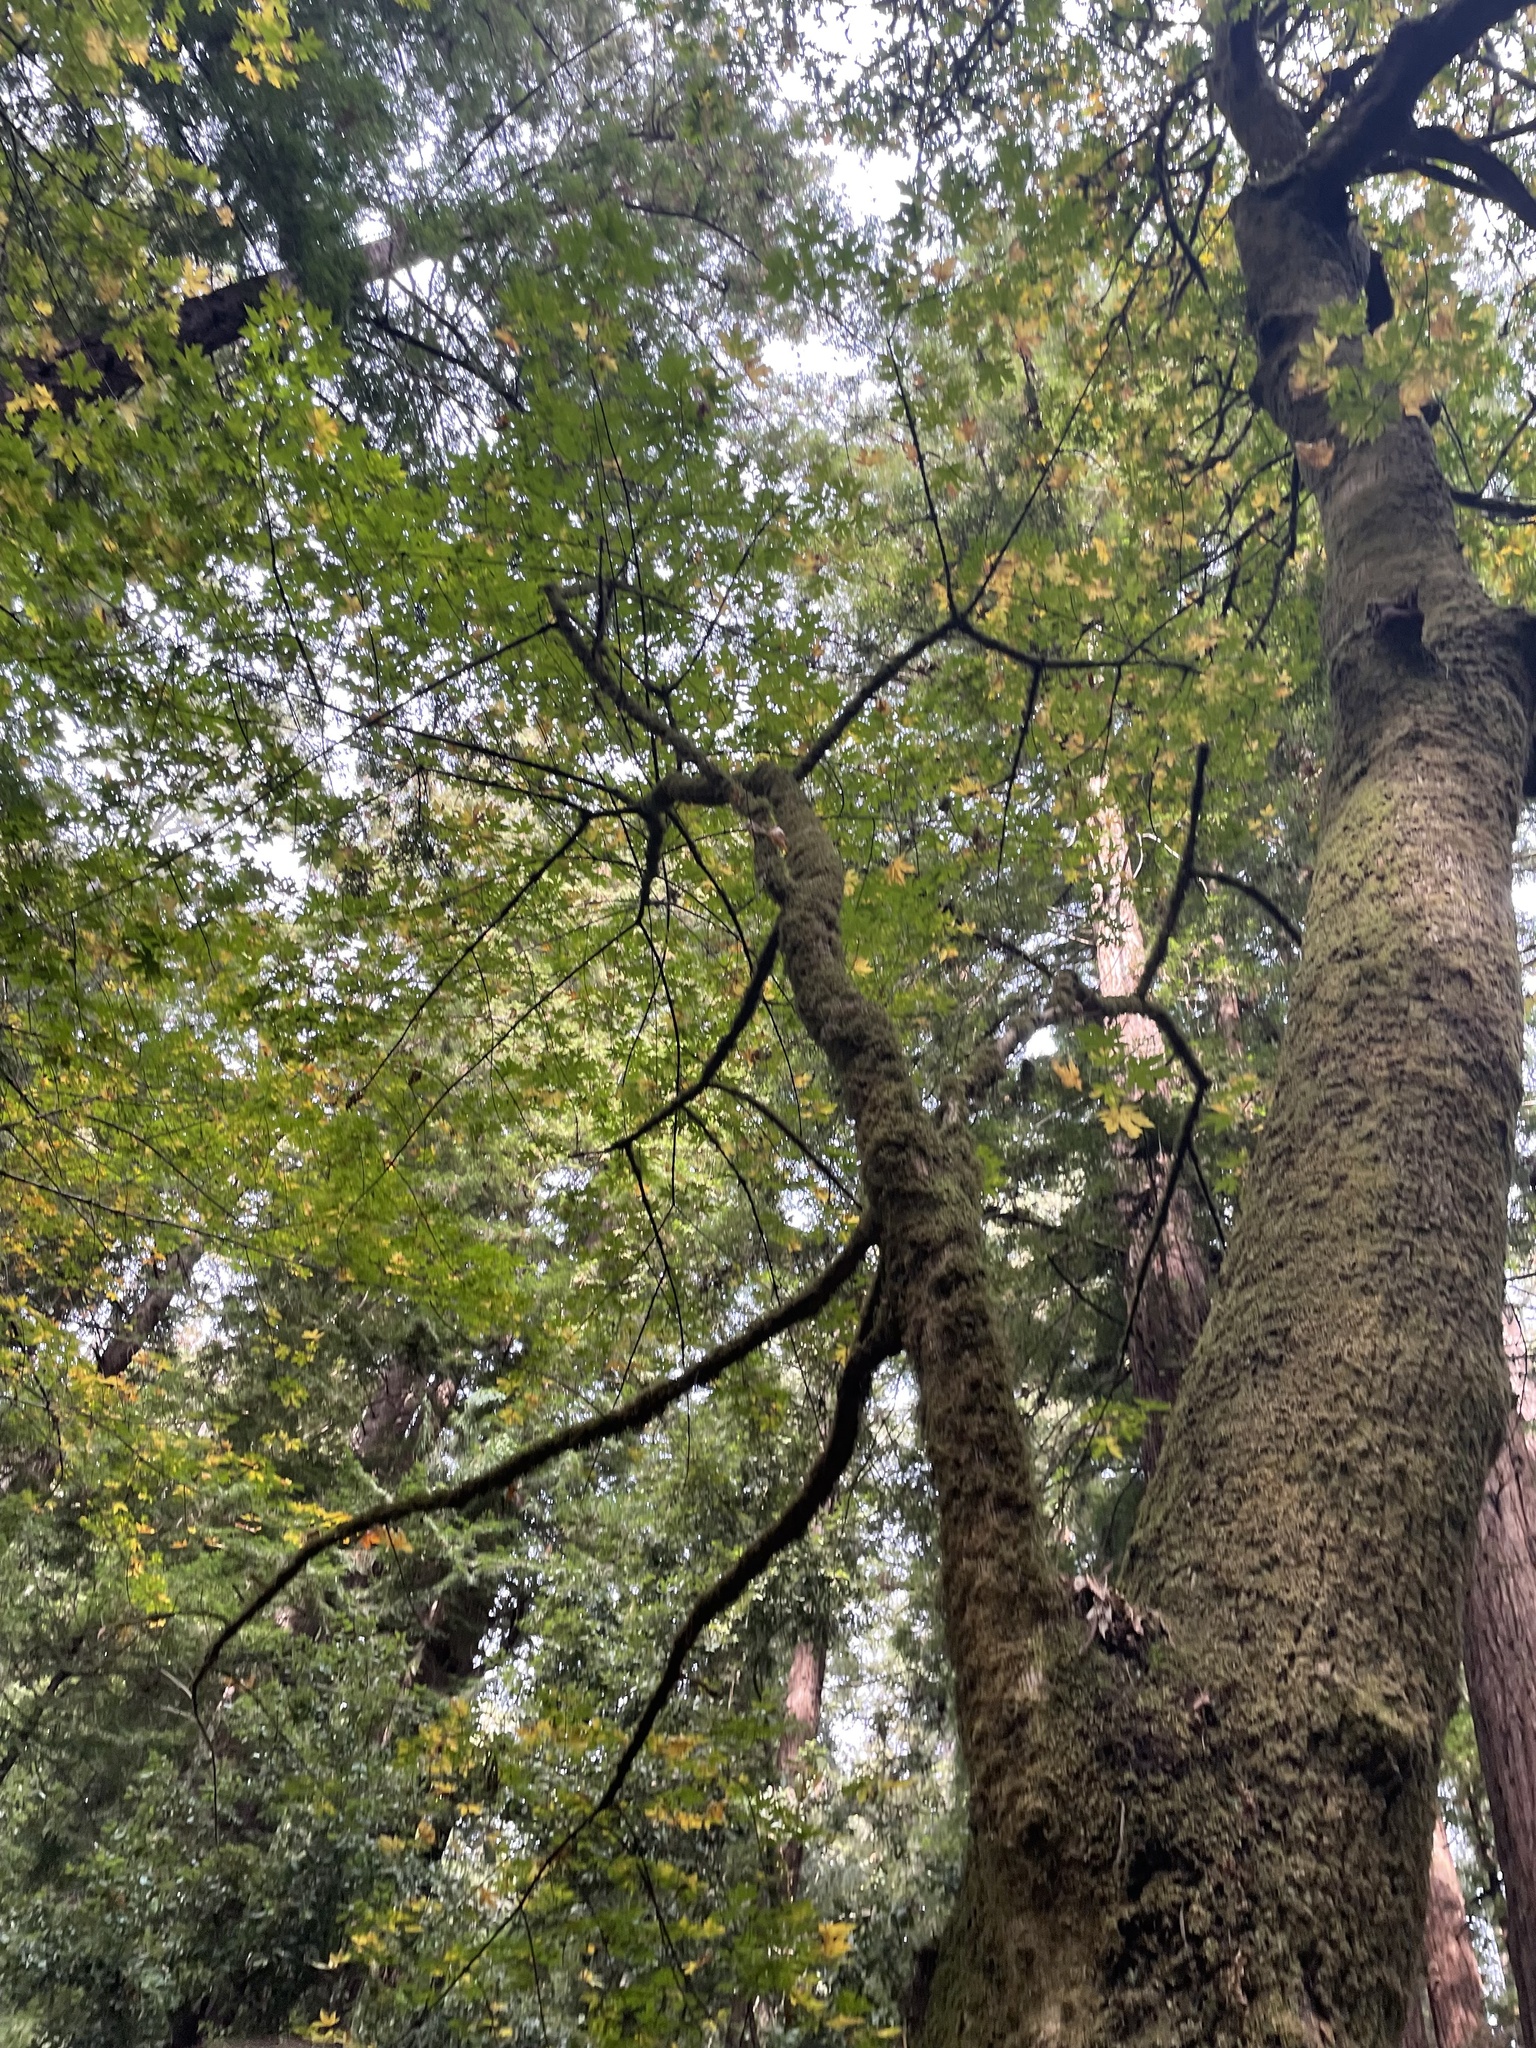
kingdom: Plantae
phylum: Tracheophyta
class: Magnoliopsida
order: Sapindales
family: Sapindaceae
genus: Acer
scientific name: Acer macrophyllum
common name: Oregon maple
